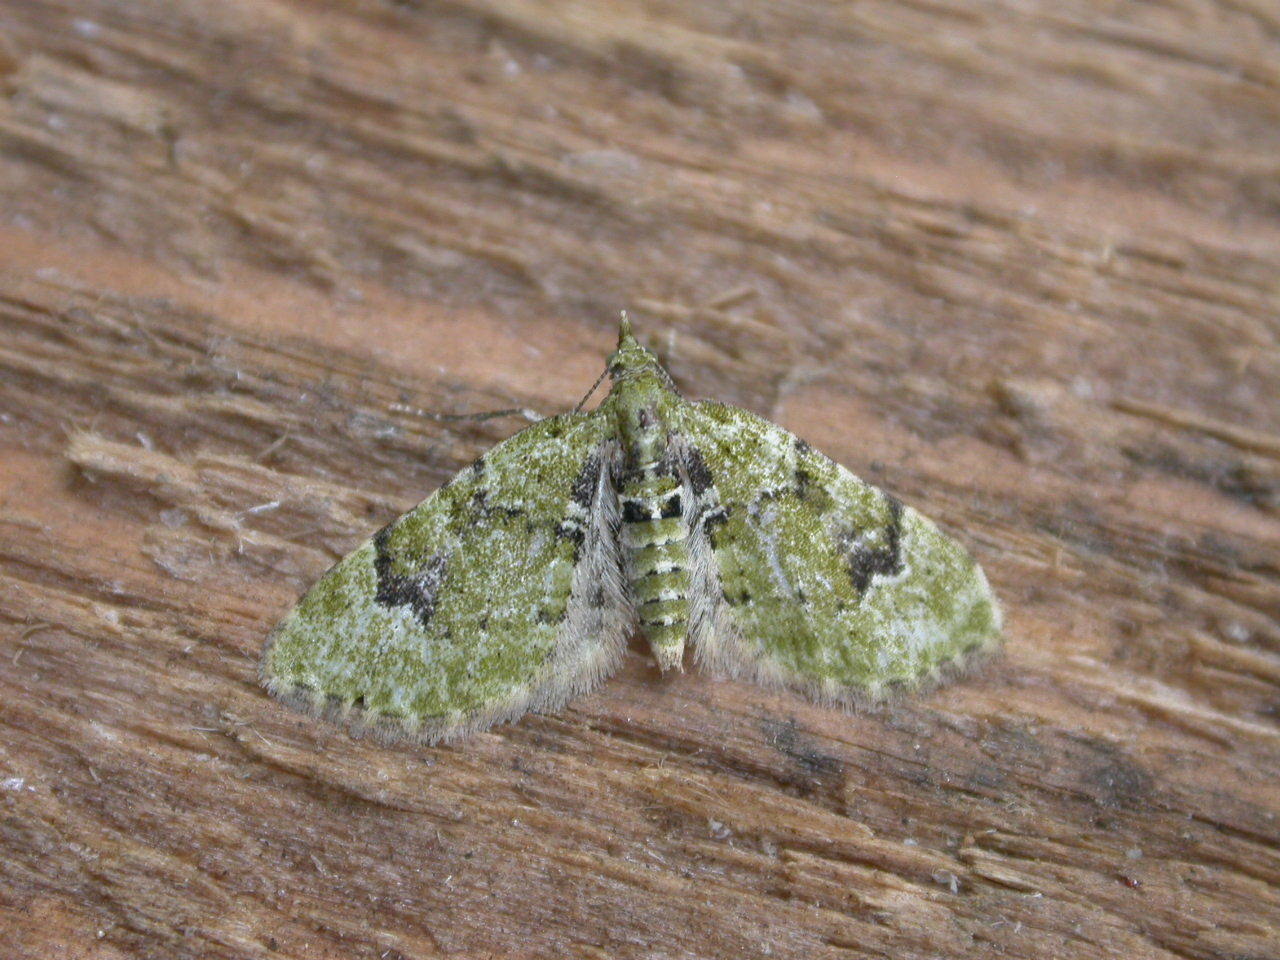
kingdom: Animalia
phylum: Arthropoda
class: Insecta
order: Lepidoptera
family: Geometridae
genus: Chloroclystis
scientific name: Chloroclystis v-ata
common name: V-pug
